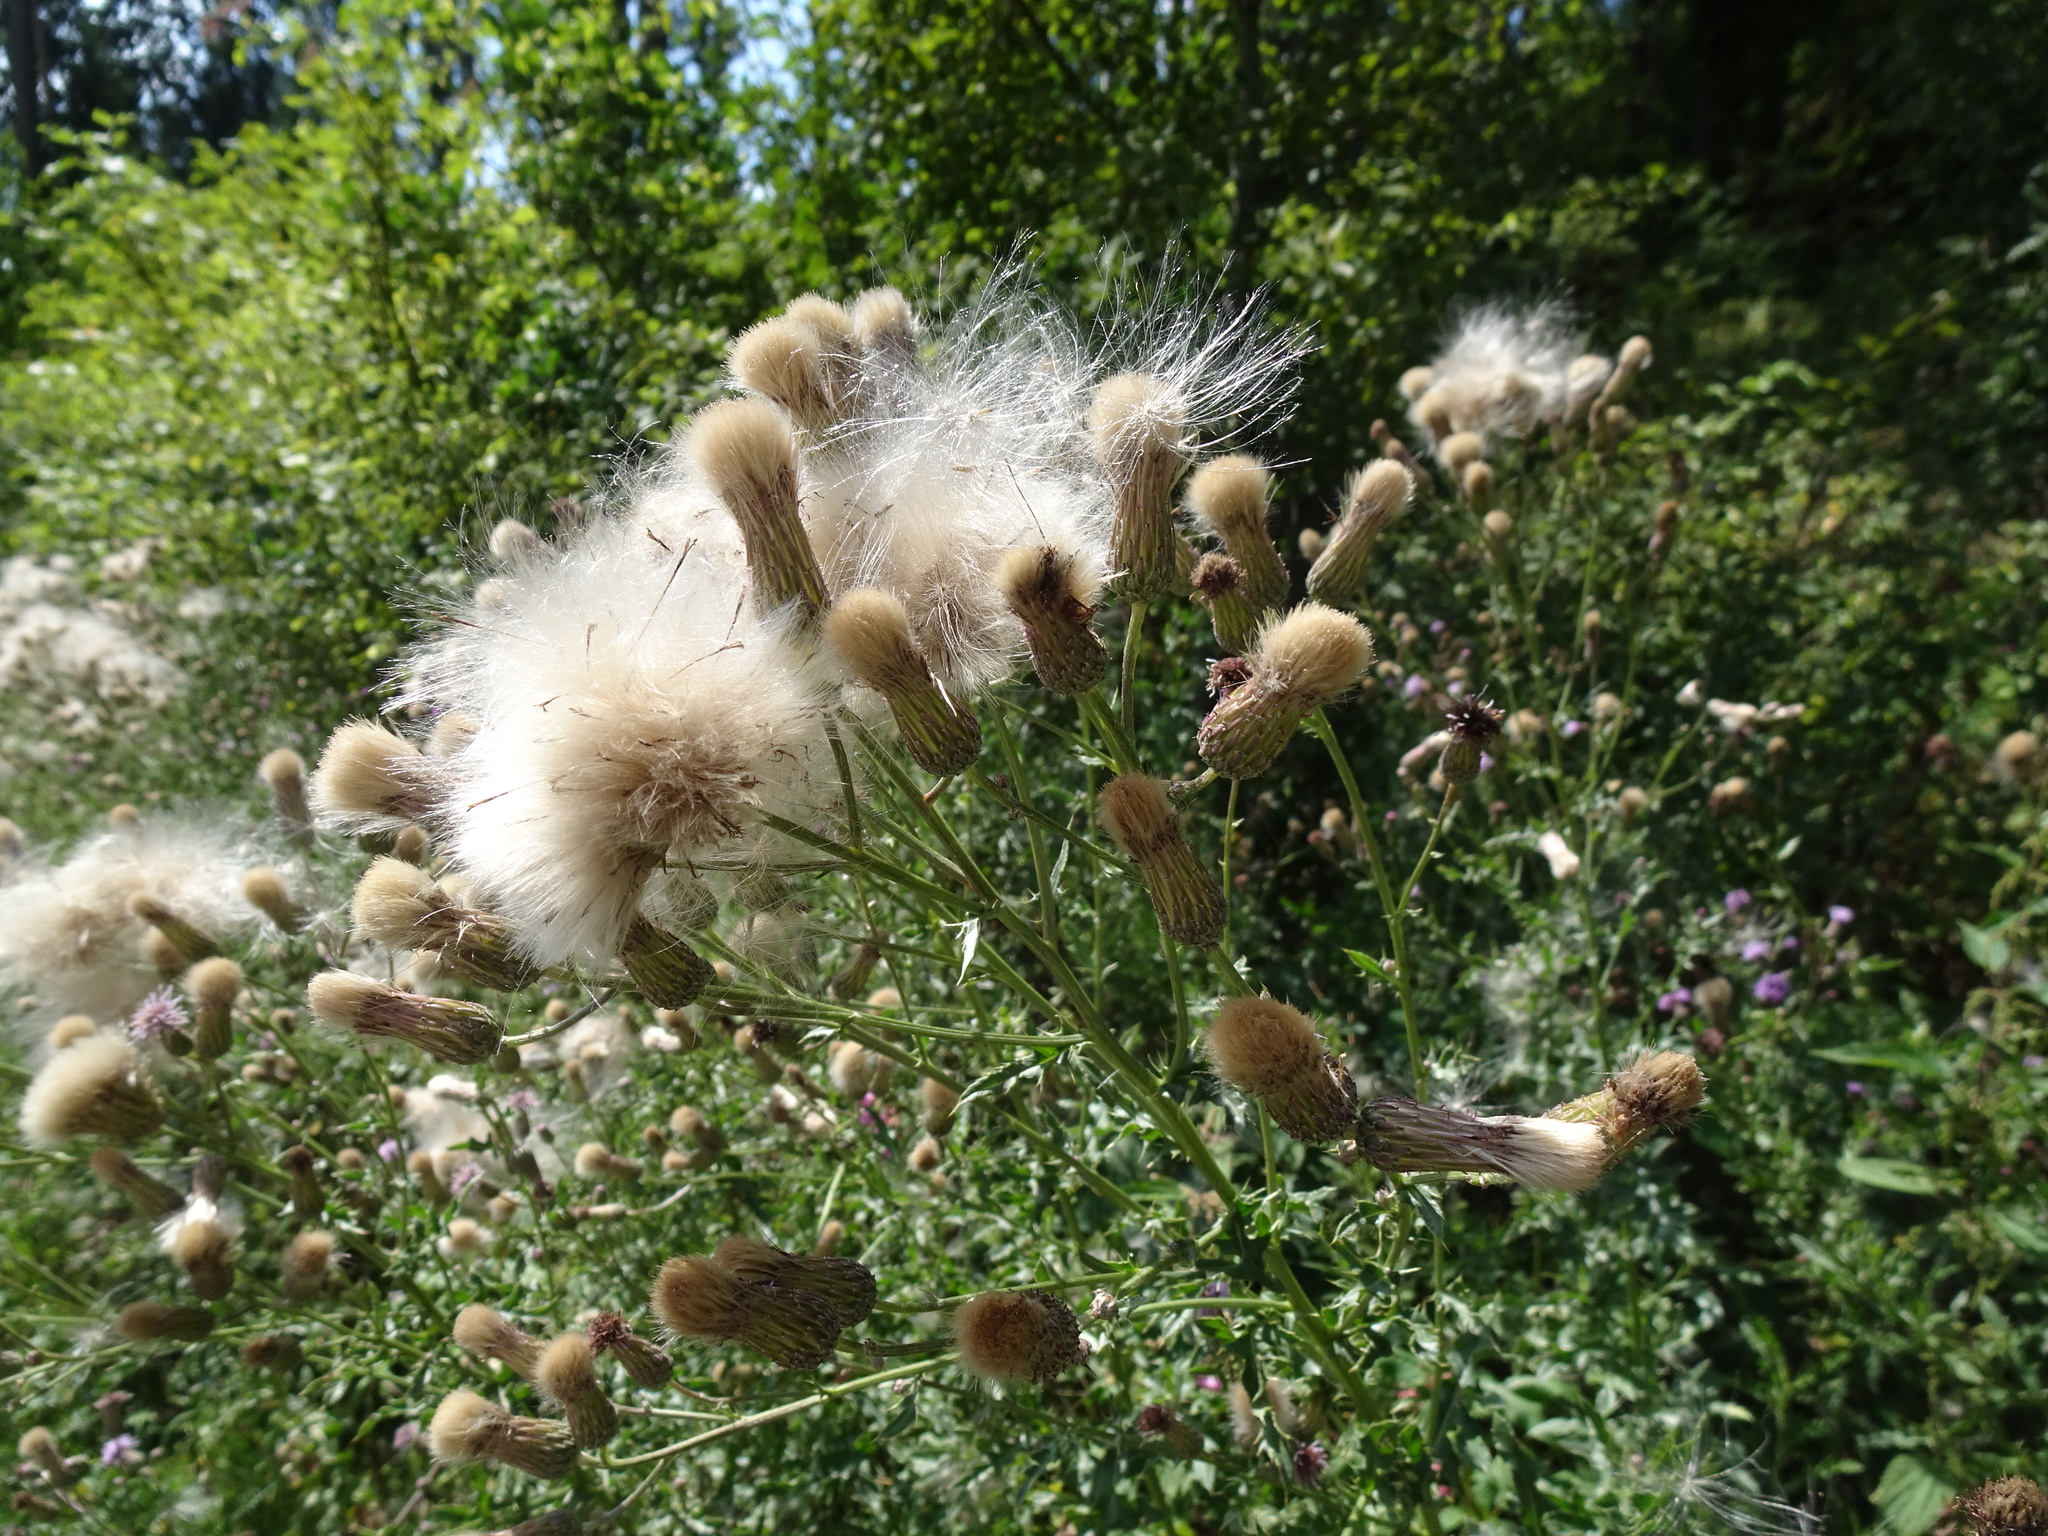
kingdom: Plantae
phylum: Tracheophyta
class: Magnoliopsida
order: Asterales
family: Asteraceae
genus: Cirsium
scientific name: Cirsium arvense
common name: Creeping thistle
